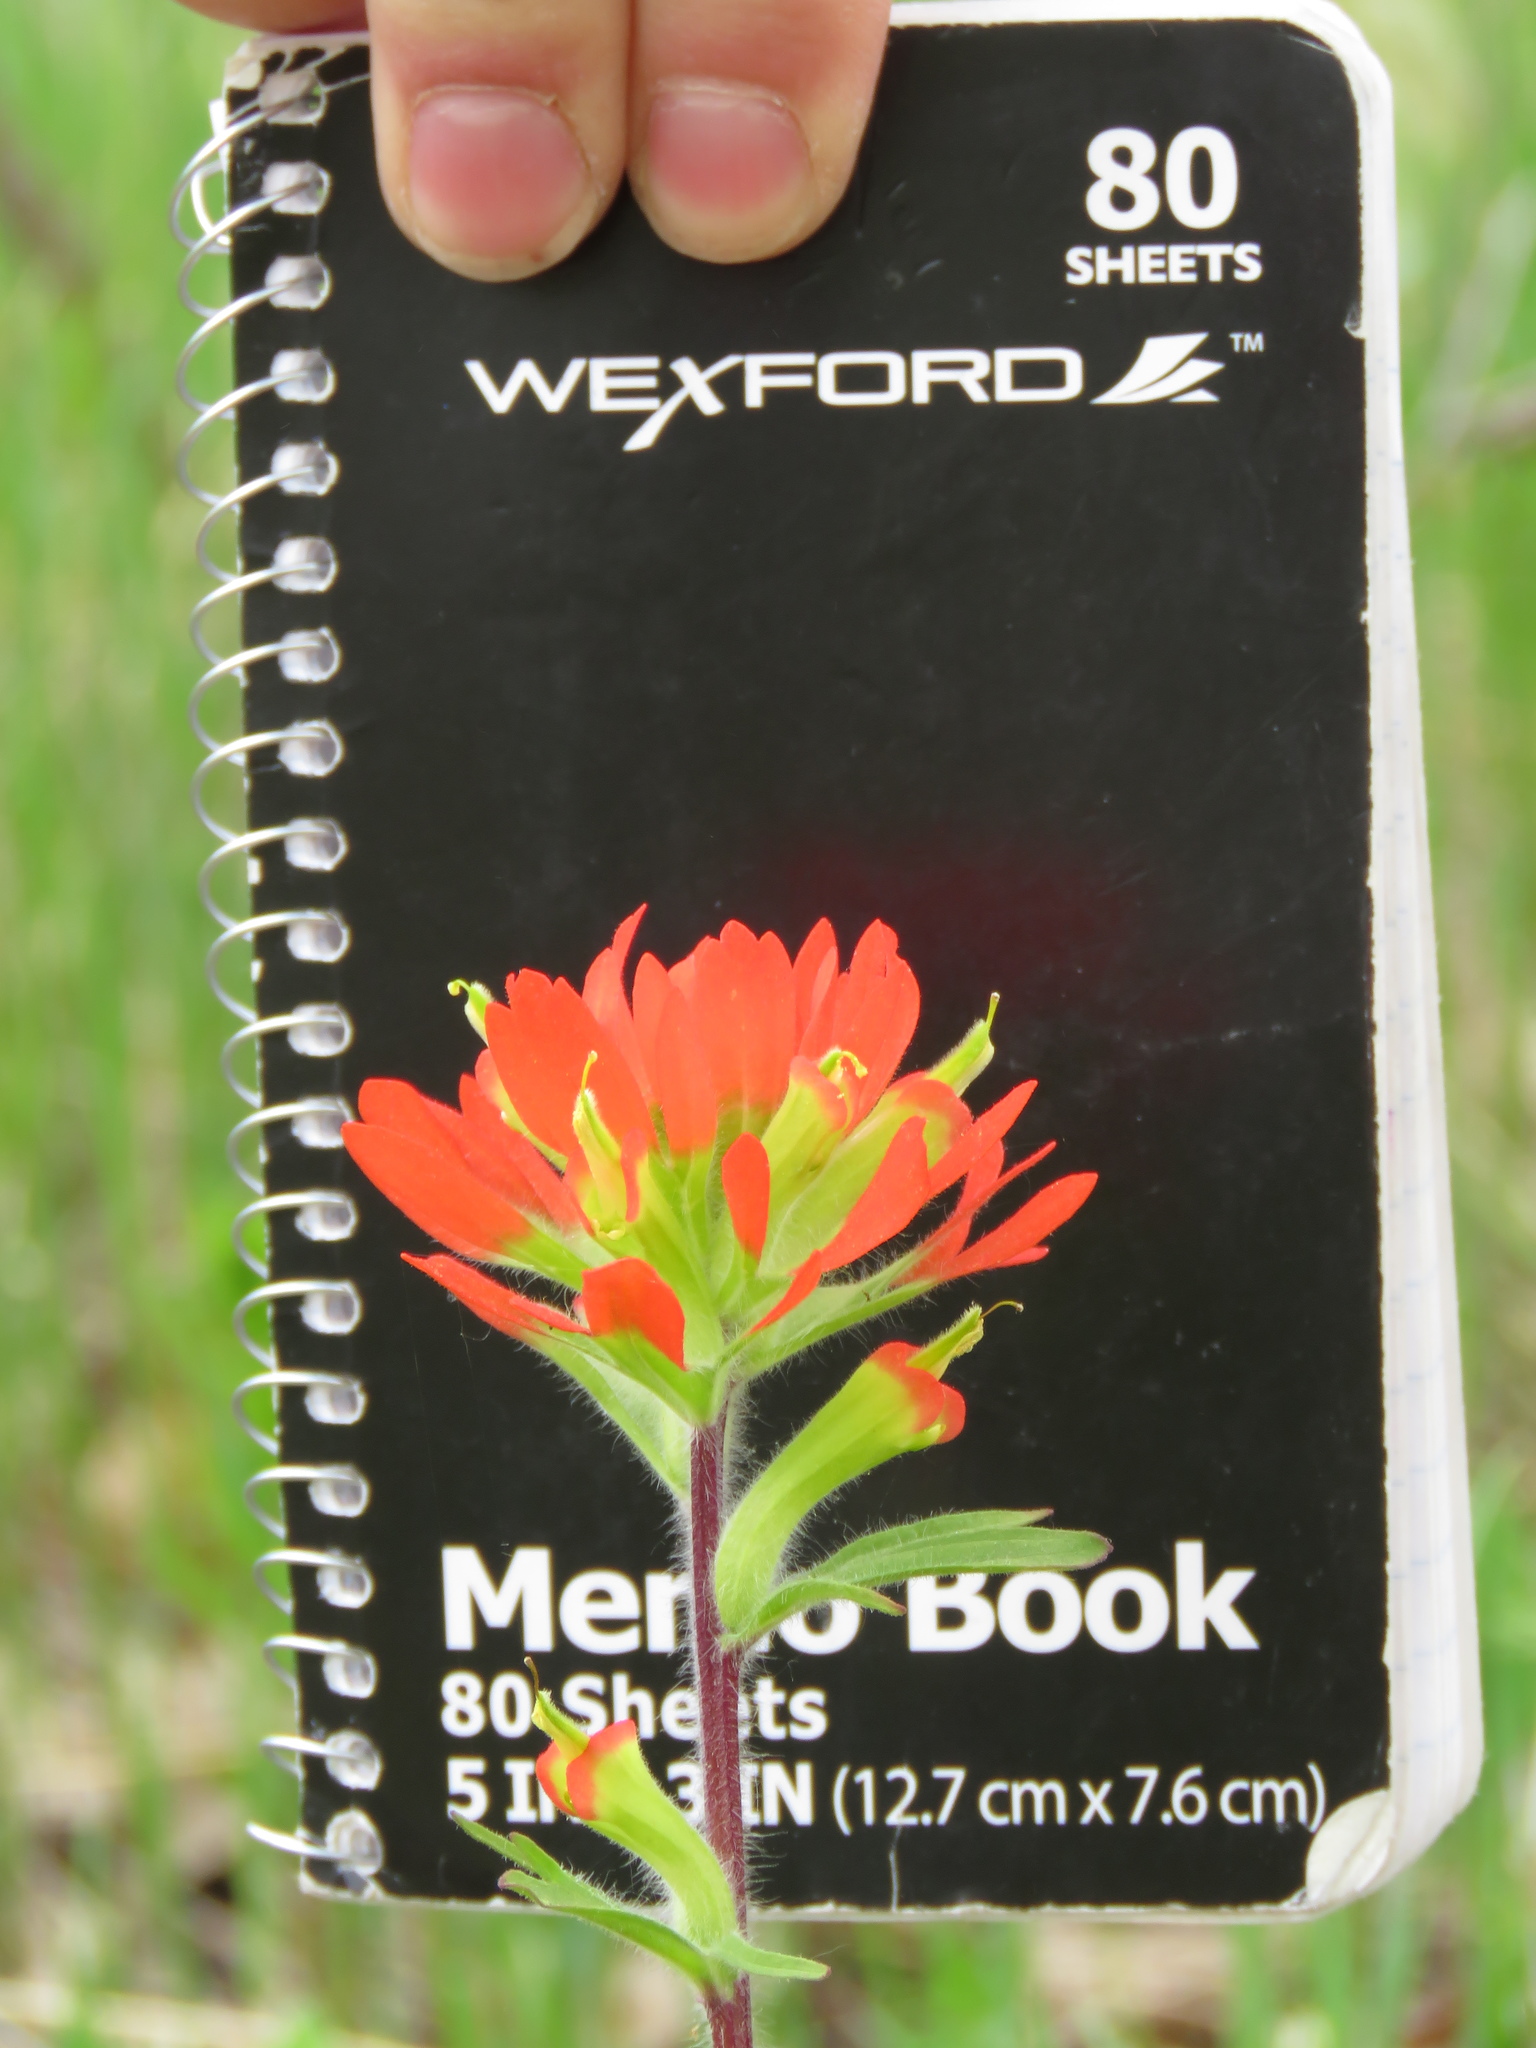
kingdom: Plantae
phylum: Tracheophyta
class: Magnoliopsida
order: Lamiales
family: Orobanchaceae
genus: Castilleja
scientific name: Castilleja coccinea
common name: Scarlet paintbrush
